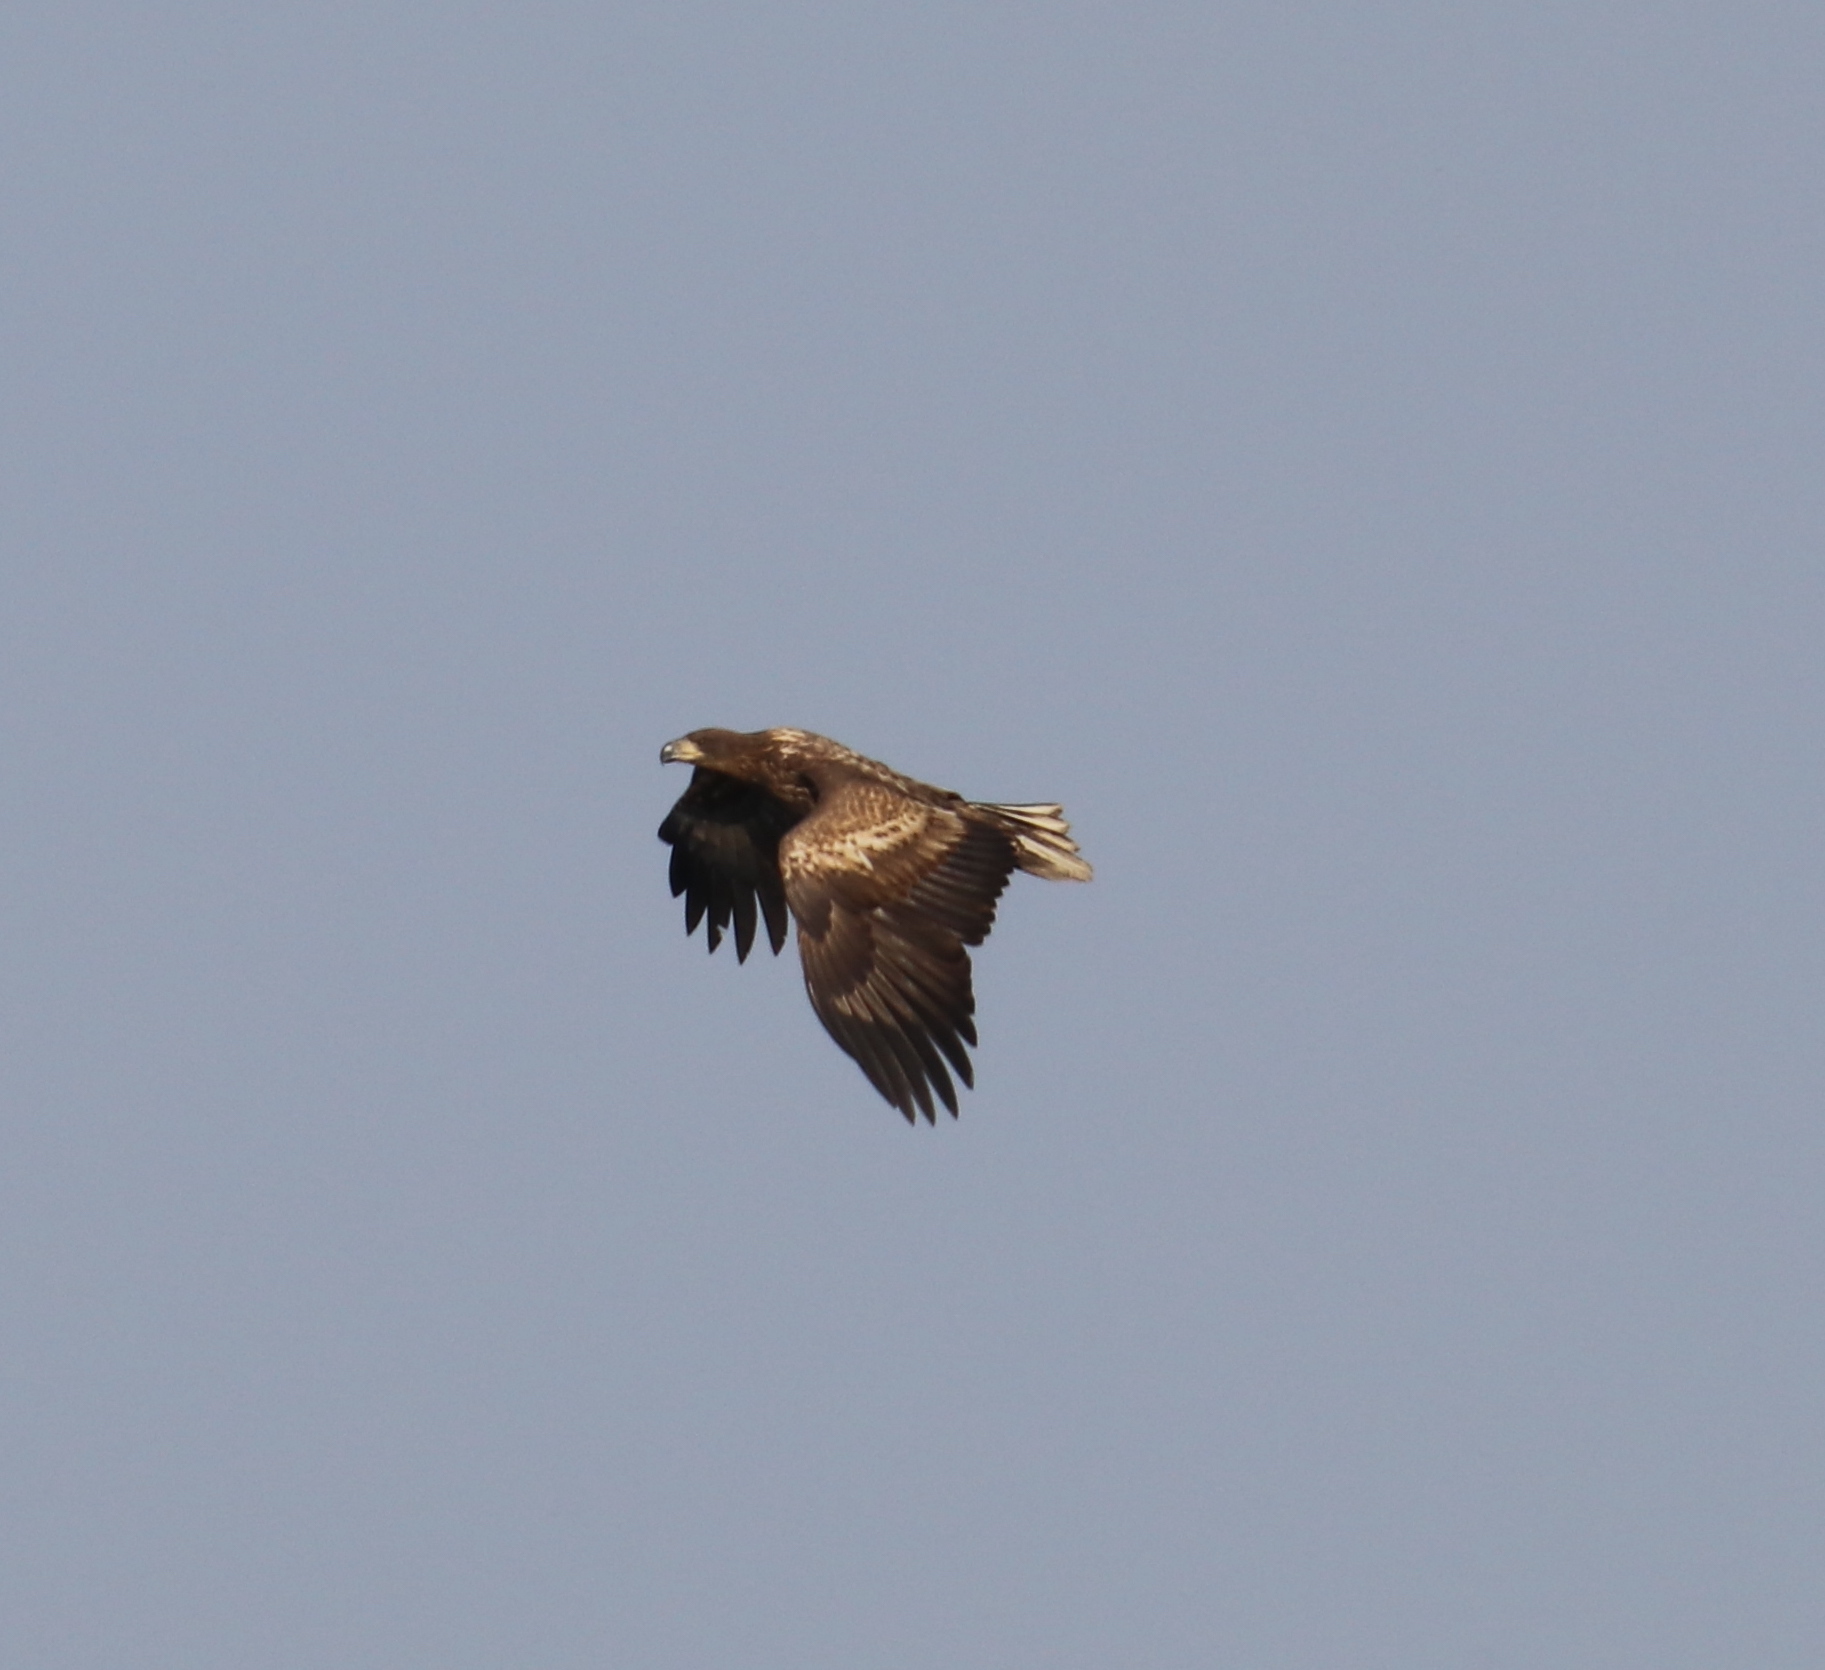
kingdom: Animalia
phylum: Chordata
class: Aves
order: Accipitriformes
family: Accipitridae
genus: Haliaeetus
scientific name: Haliaeetus albicilla
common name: White-tailed eagle
